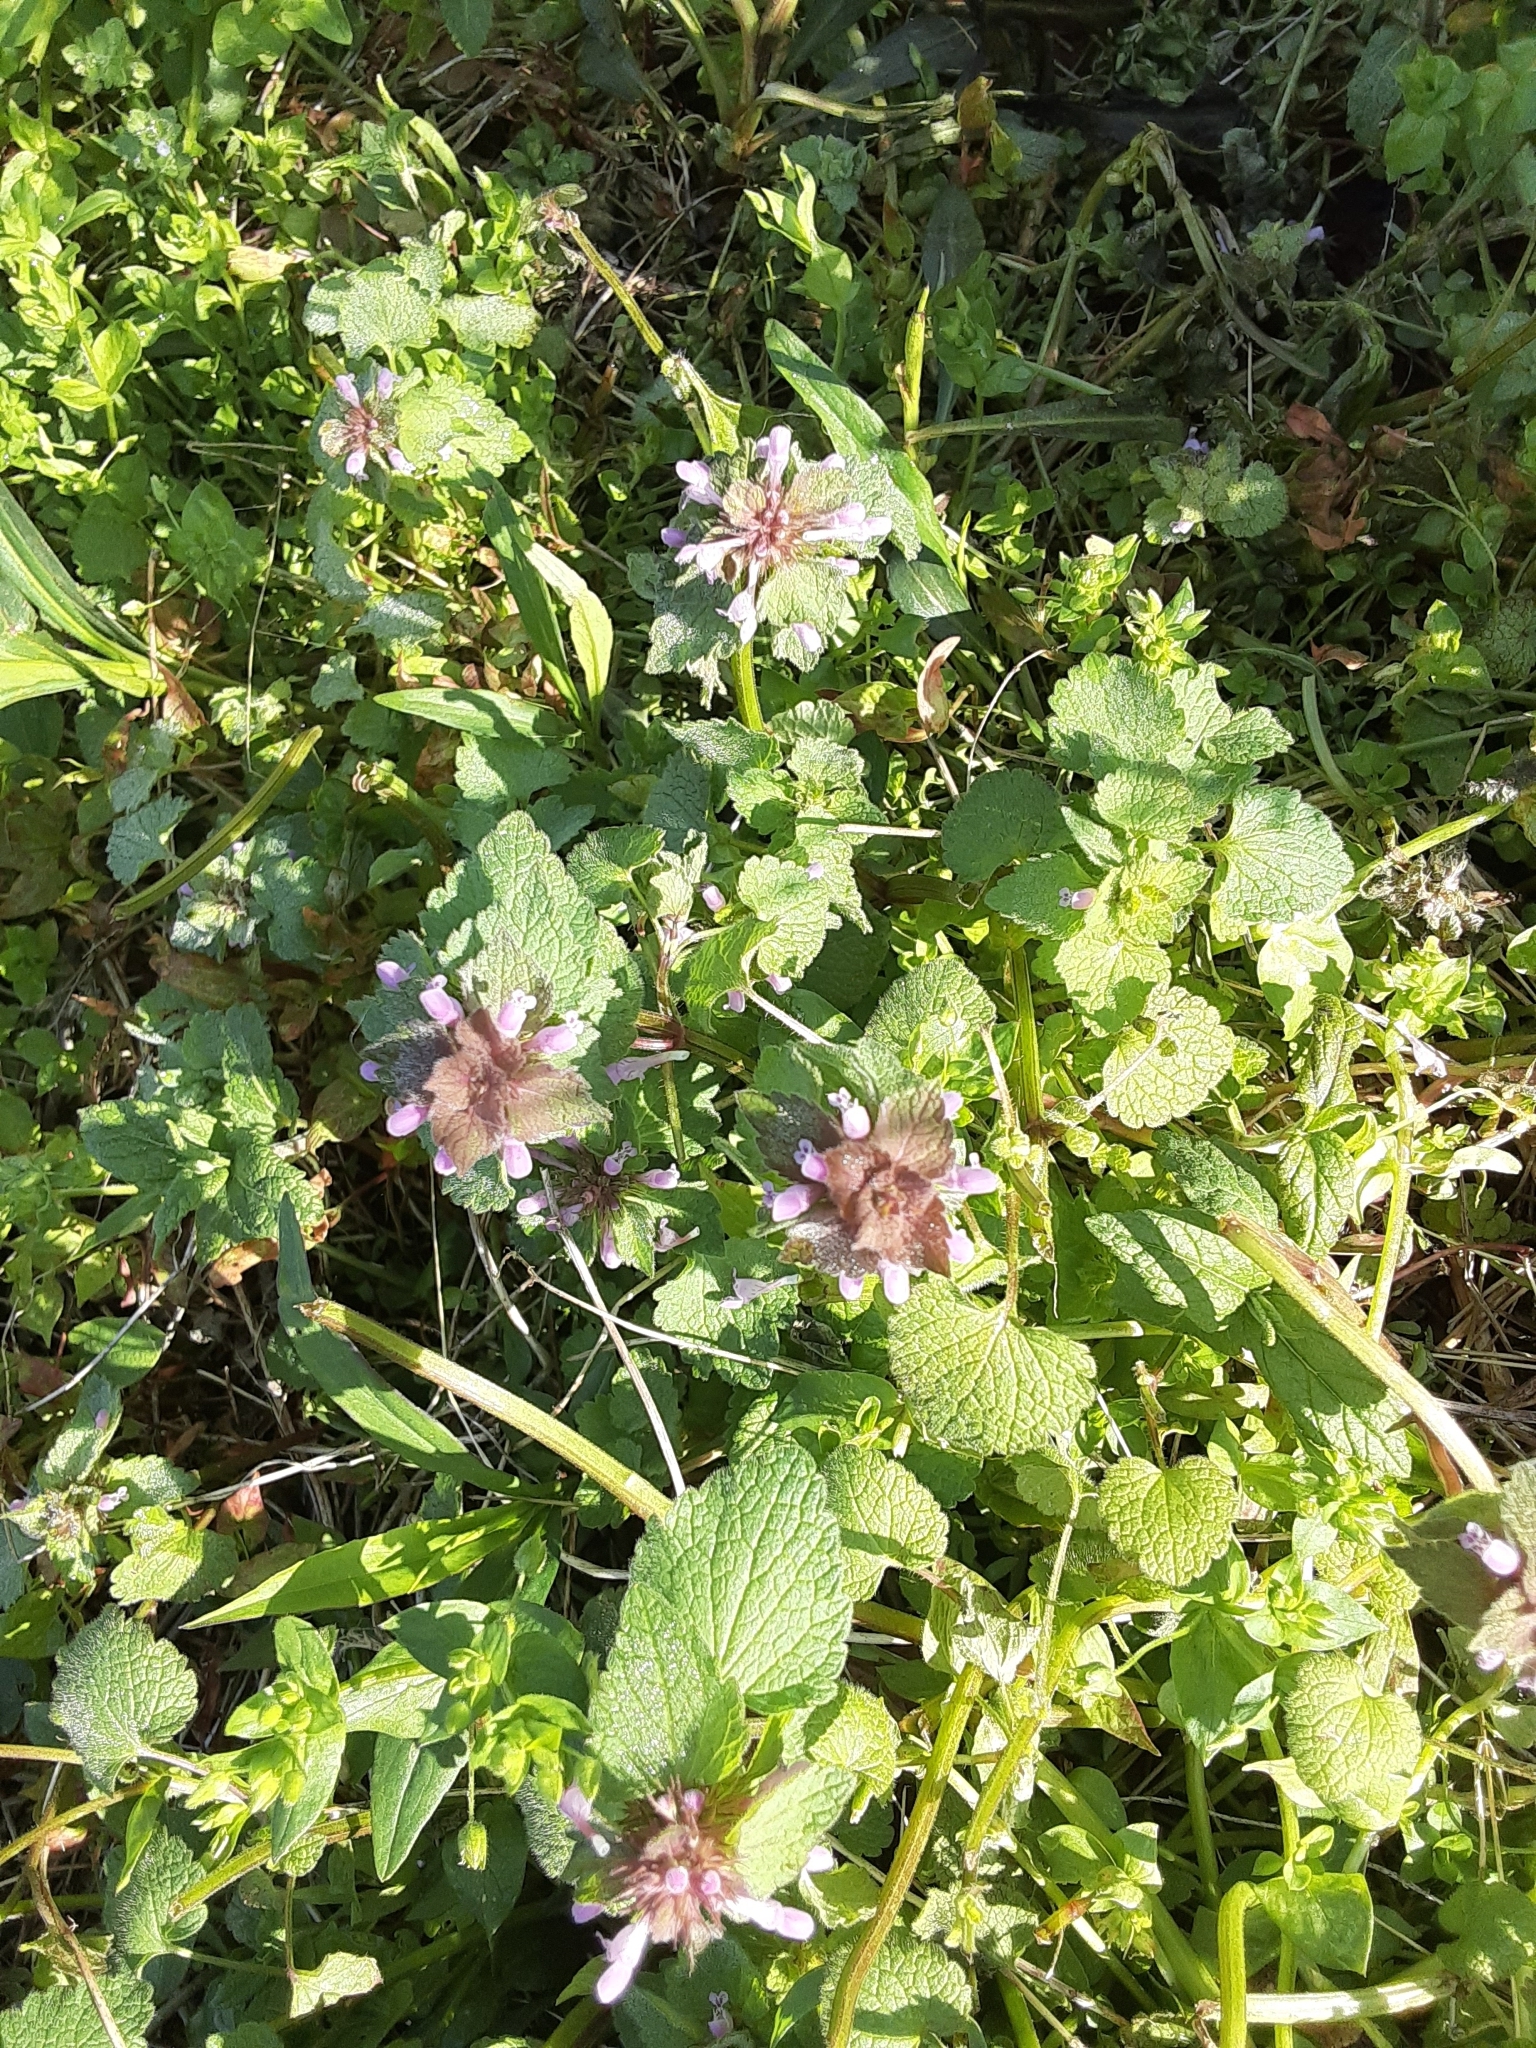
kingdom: Plantae
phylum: Tracheophyta
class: Magnoliopsida
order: Lamiales
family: Lamiaceae
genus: Lamium
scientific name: Lamium purpureum
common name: Red dead-nettle
